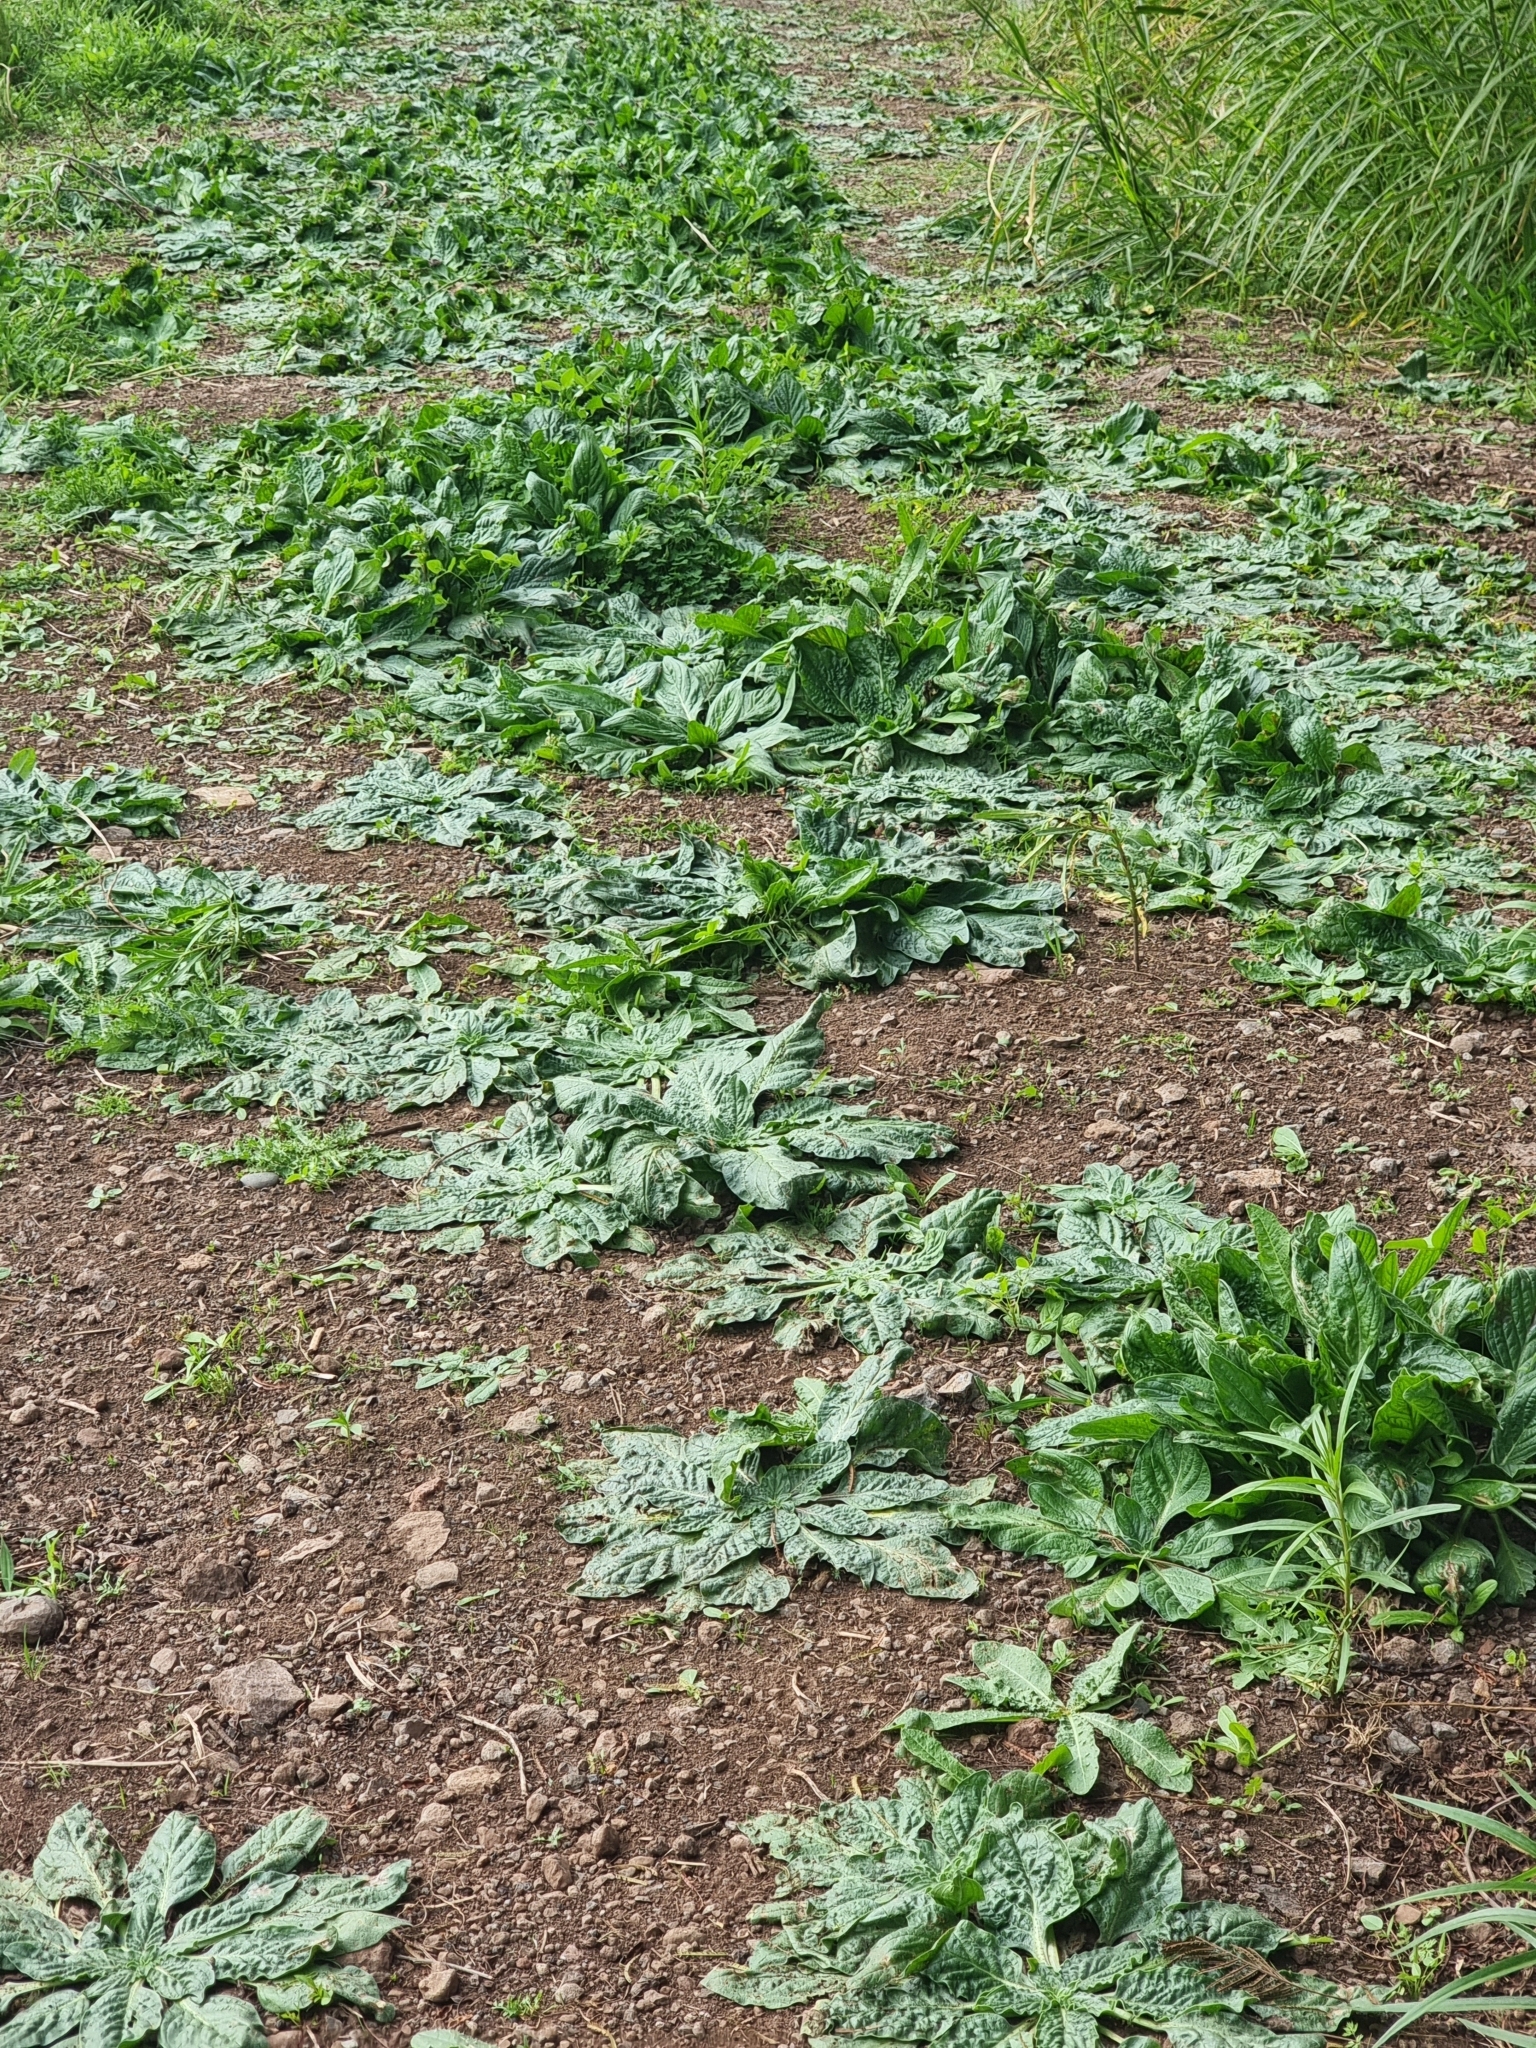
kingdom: Plantae
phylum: Tracheophyta
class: Magnoliopsida
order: Boraginales
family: Boraginaceae
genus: Echium
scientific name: Echium plantagineum
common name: Purple viper's-bugloss
